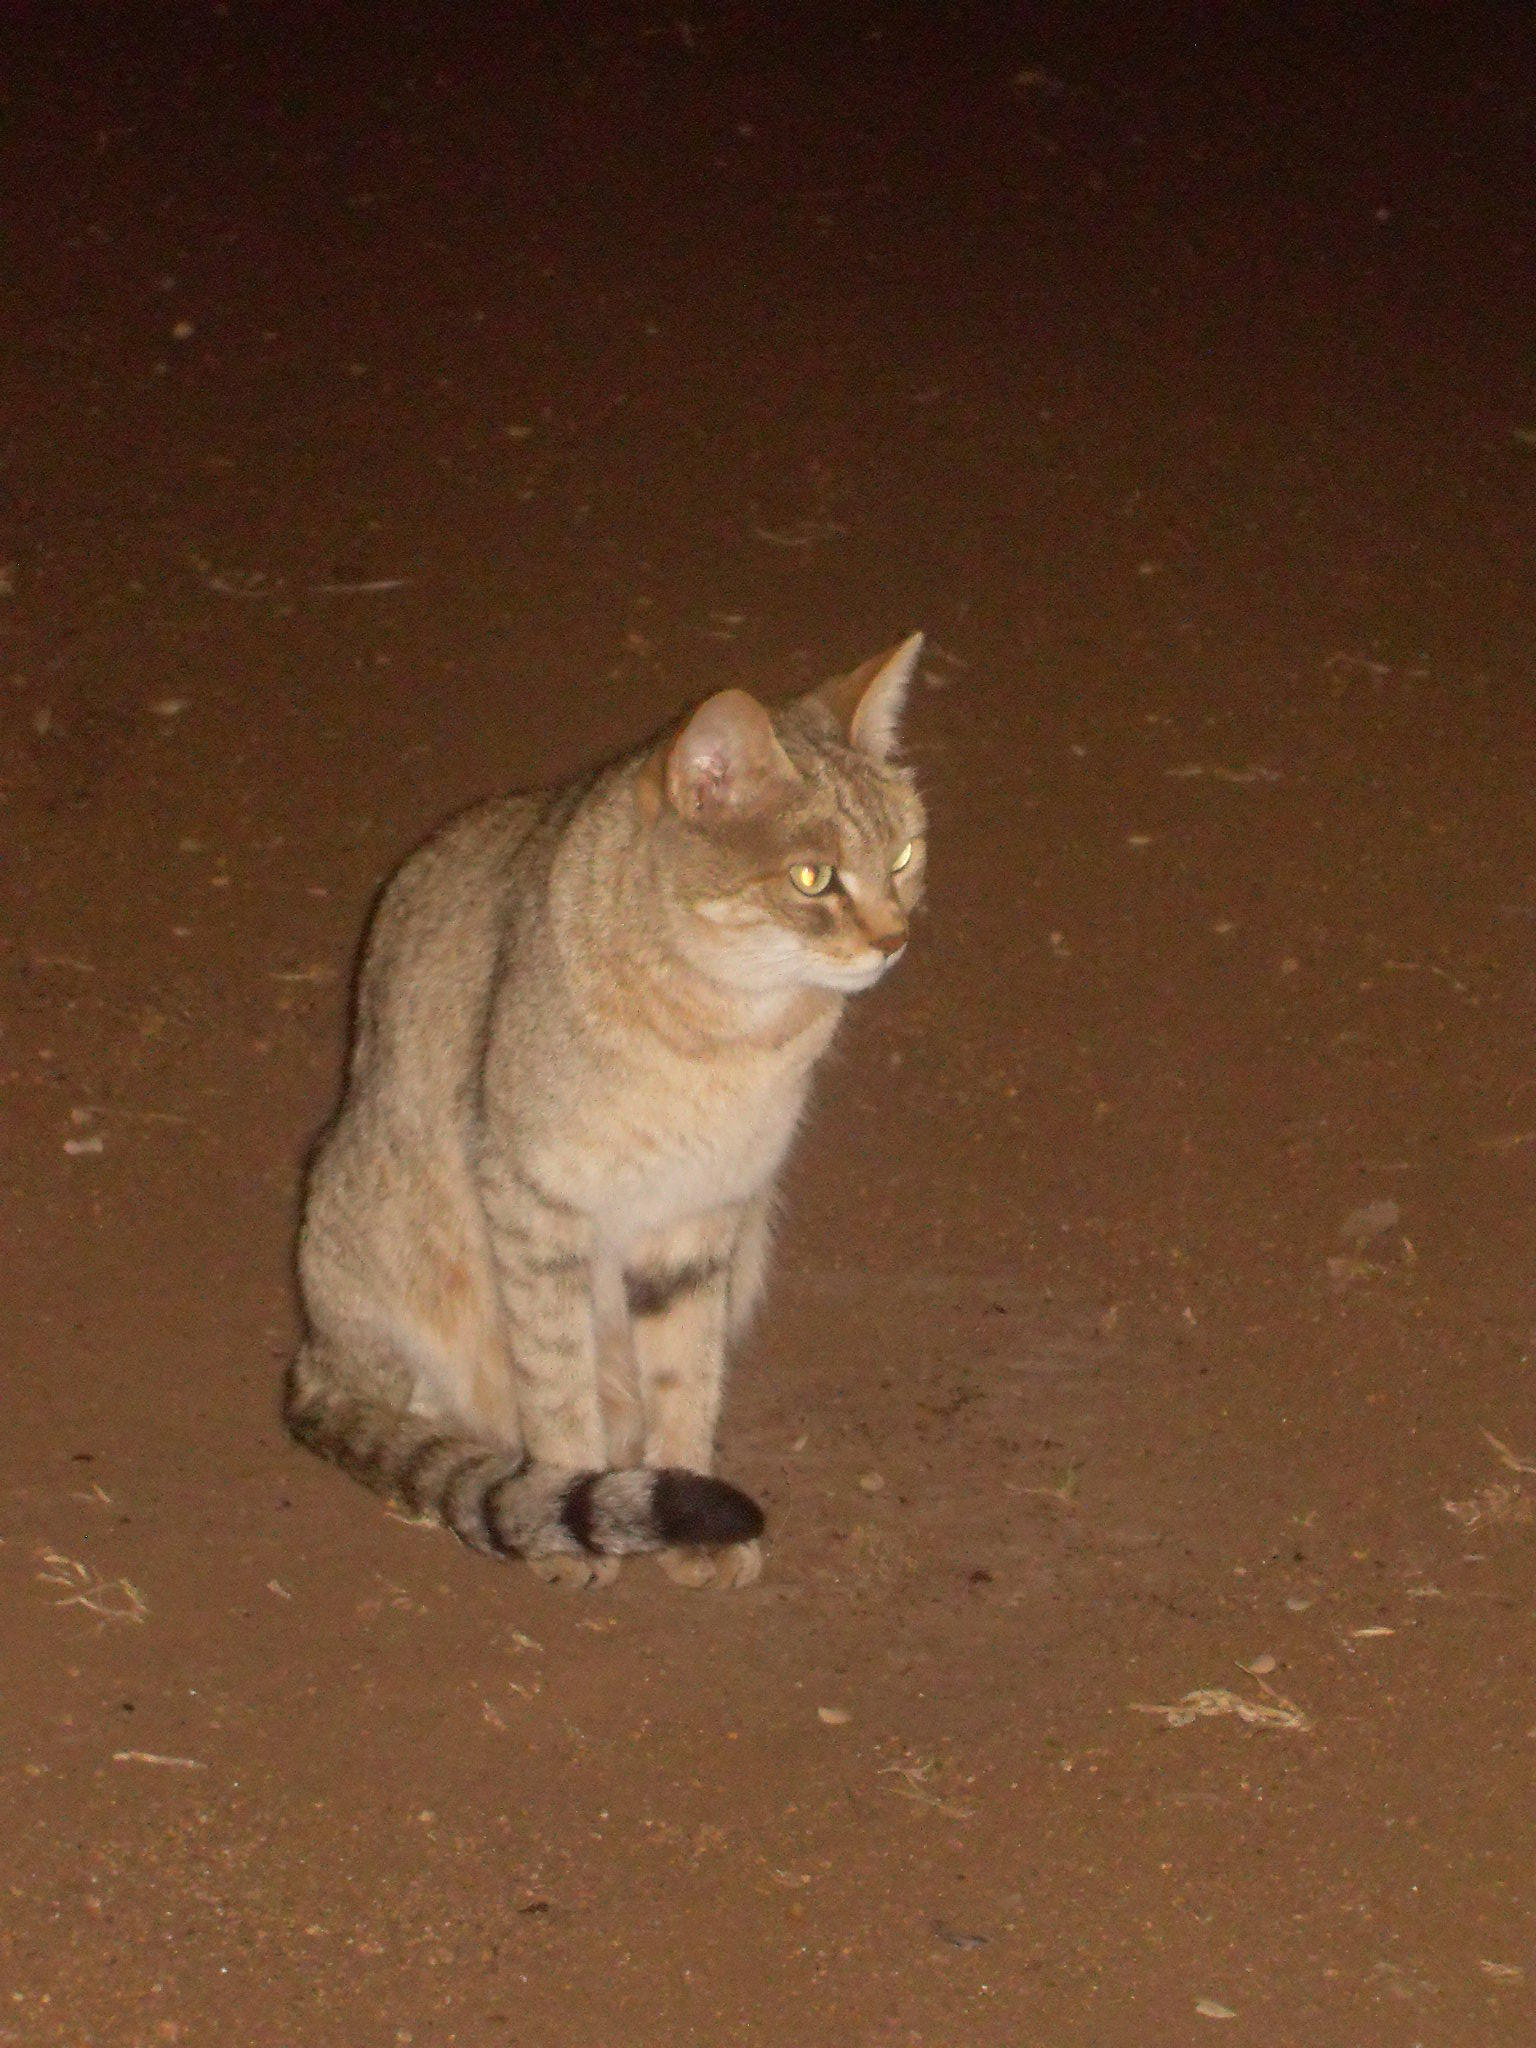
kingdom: Animalia
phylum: Chordata
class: Mammalia
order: Carnivora
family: Felidae
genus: Felis
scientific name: Felis silvestris
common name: Wildcat
